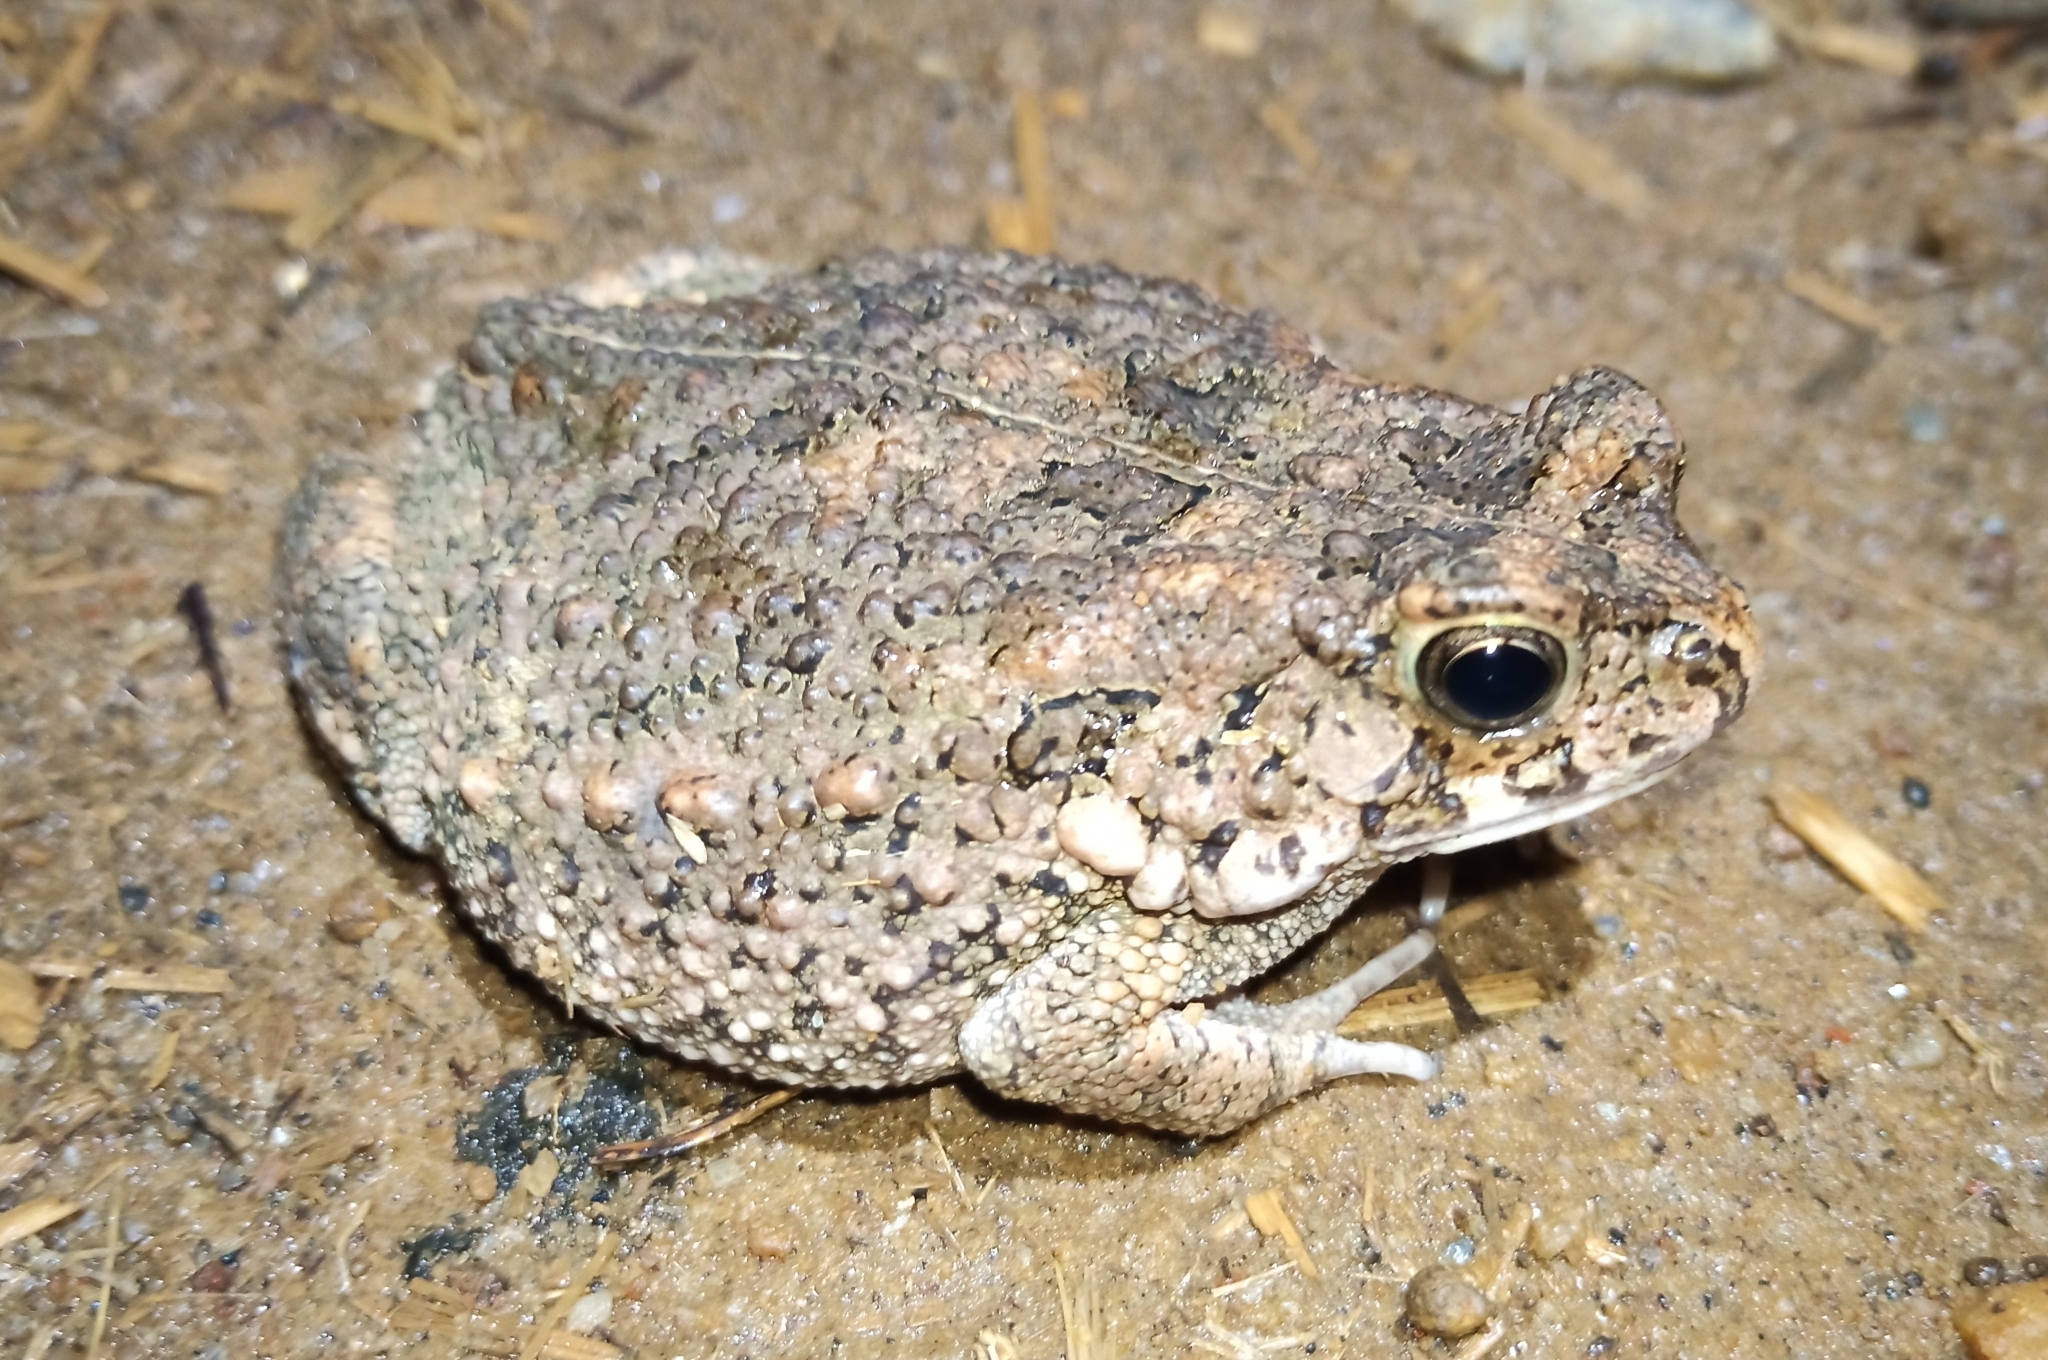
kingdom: Animalia
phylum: Chordata
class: Amphibia
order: Anura
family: Bufonidae
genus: Sclerophrys
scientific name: Sclerophrys maculata
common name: Hallowell's toad
